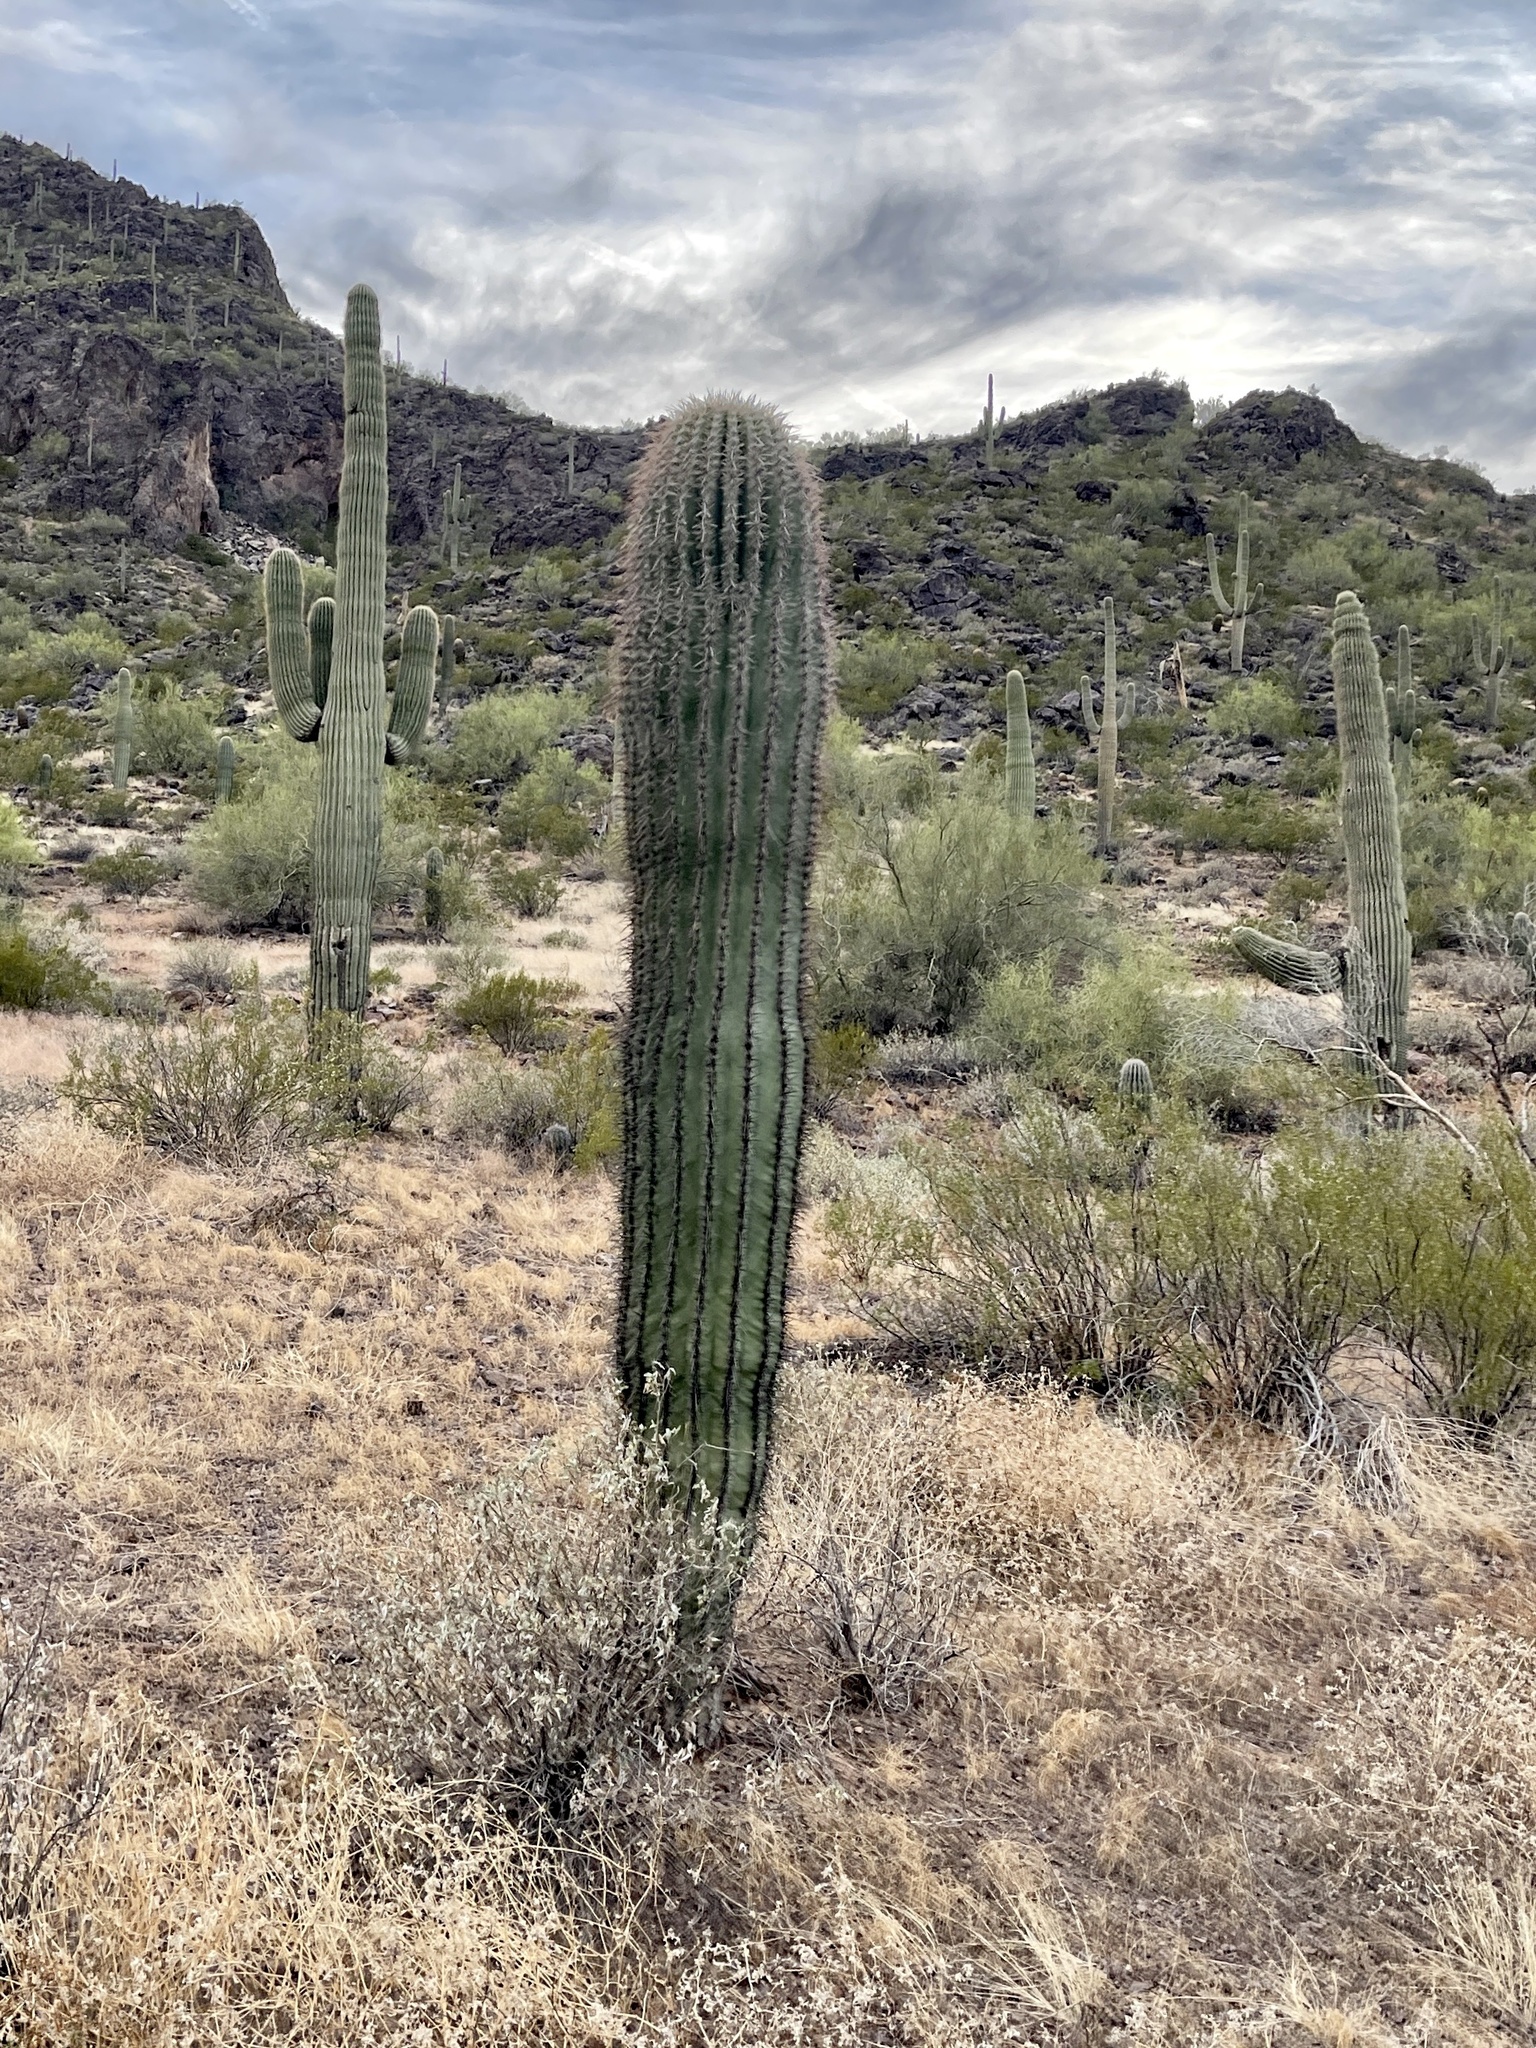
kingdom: Plantae
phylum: Tracheophyta
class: Magnoliopsida
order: Caryophyllales
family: Cactaceae
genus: Carnegiea
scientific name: Carnegiea gigantea
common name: Saguaro
